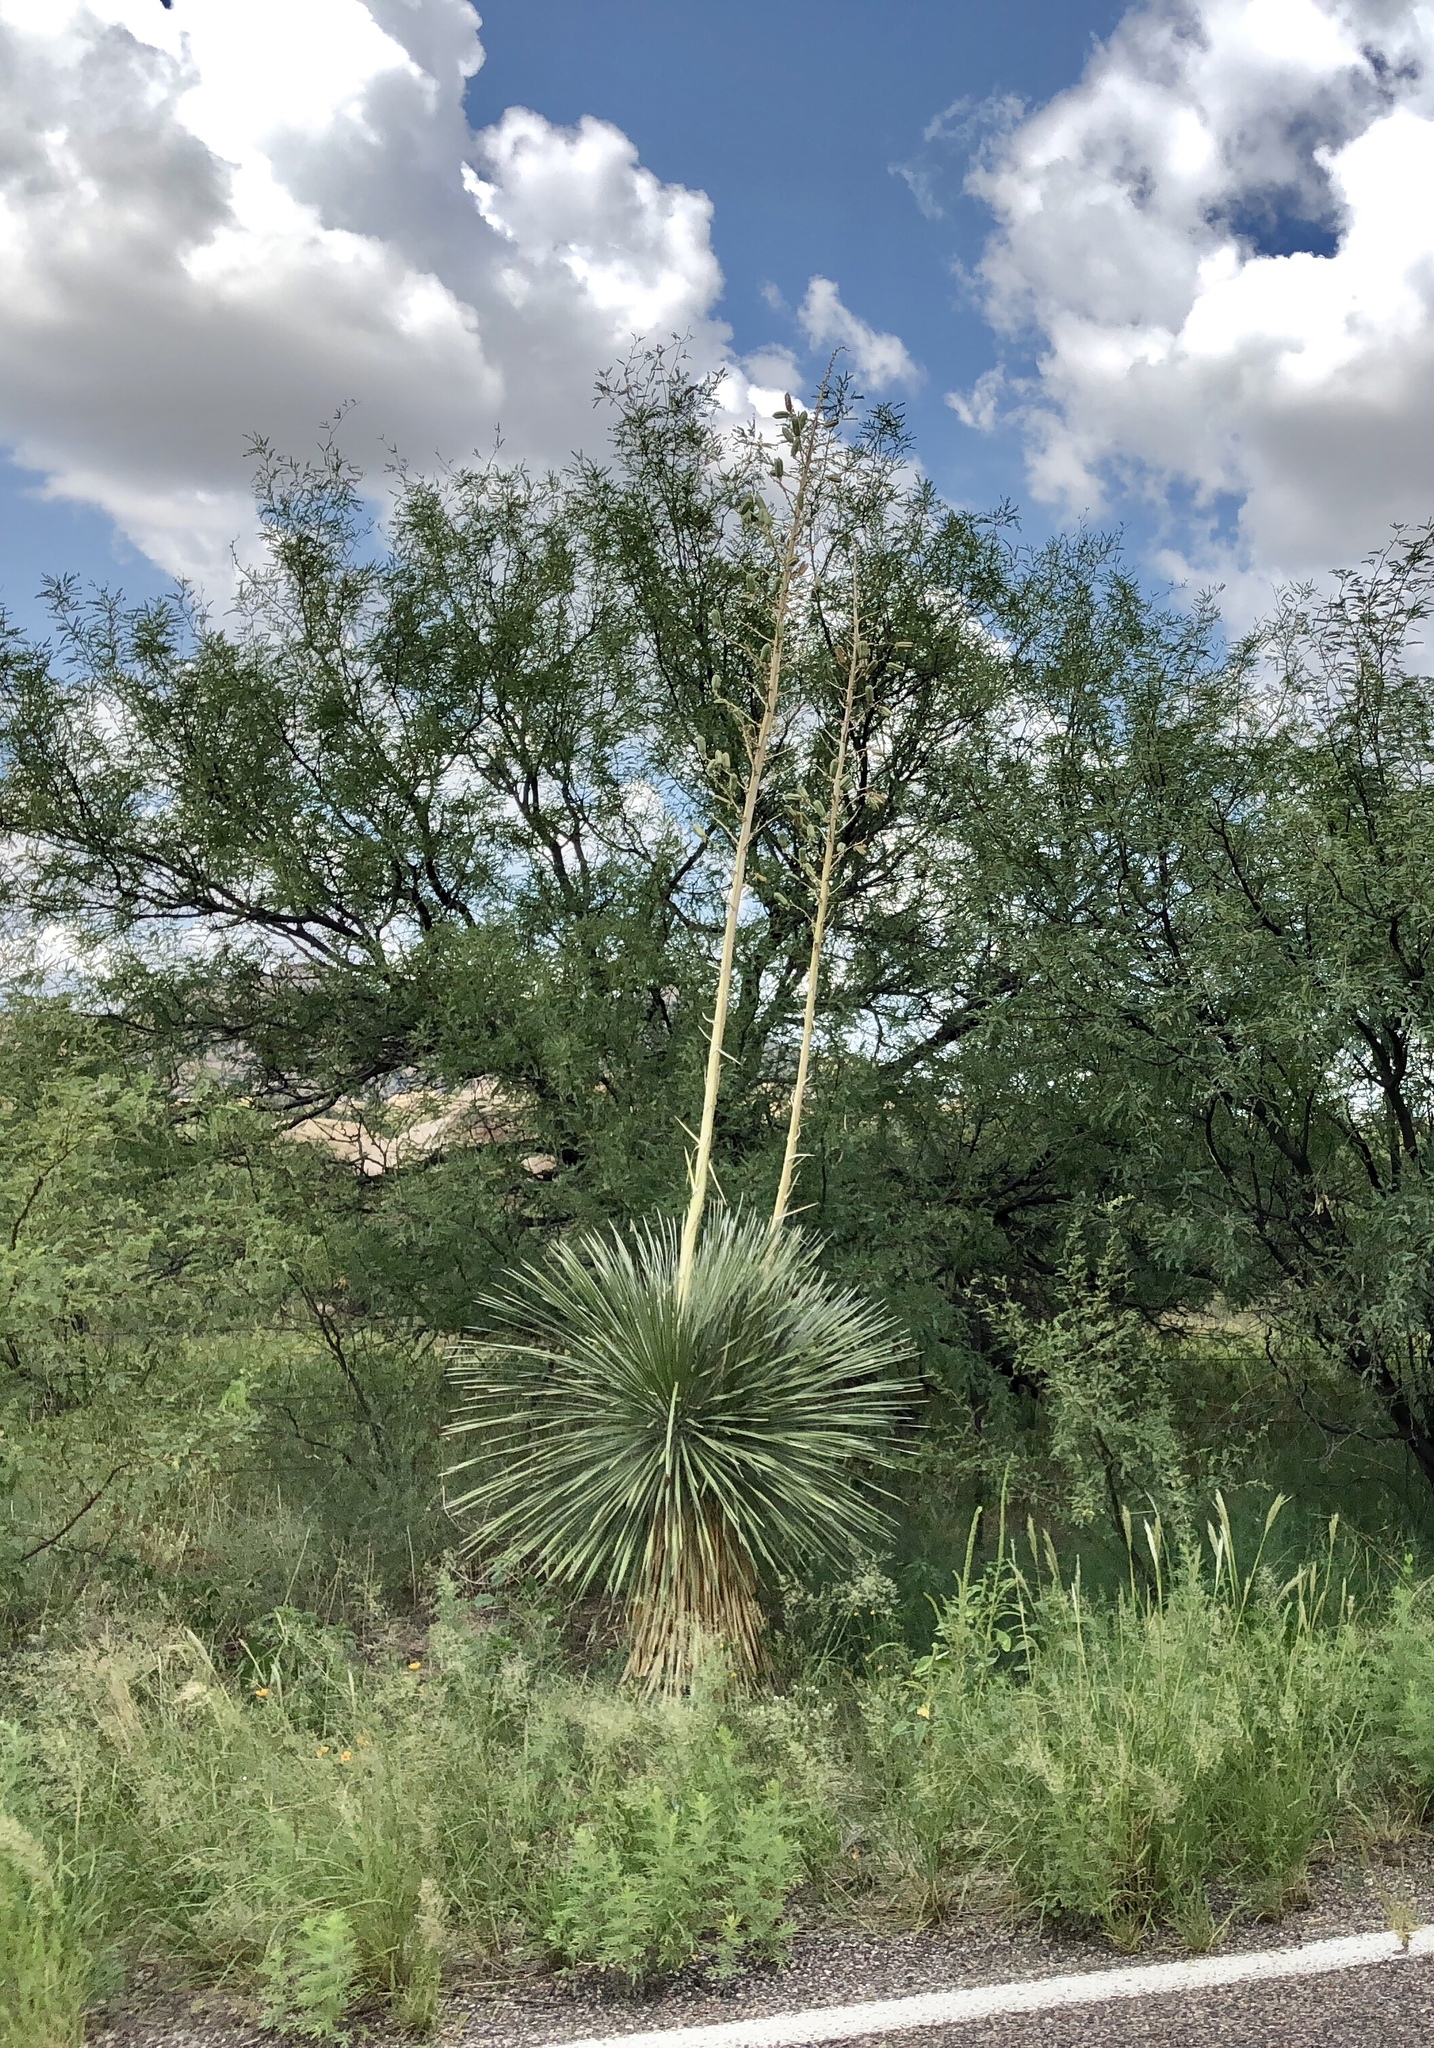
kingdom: Plantae
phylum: Tracheophyta
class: Liliopsida
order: Asparagales
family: Asparagaceae
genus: Yucca
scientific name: Yucca elata
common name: Palmella
